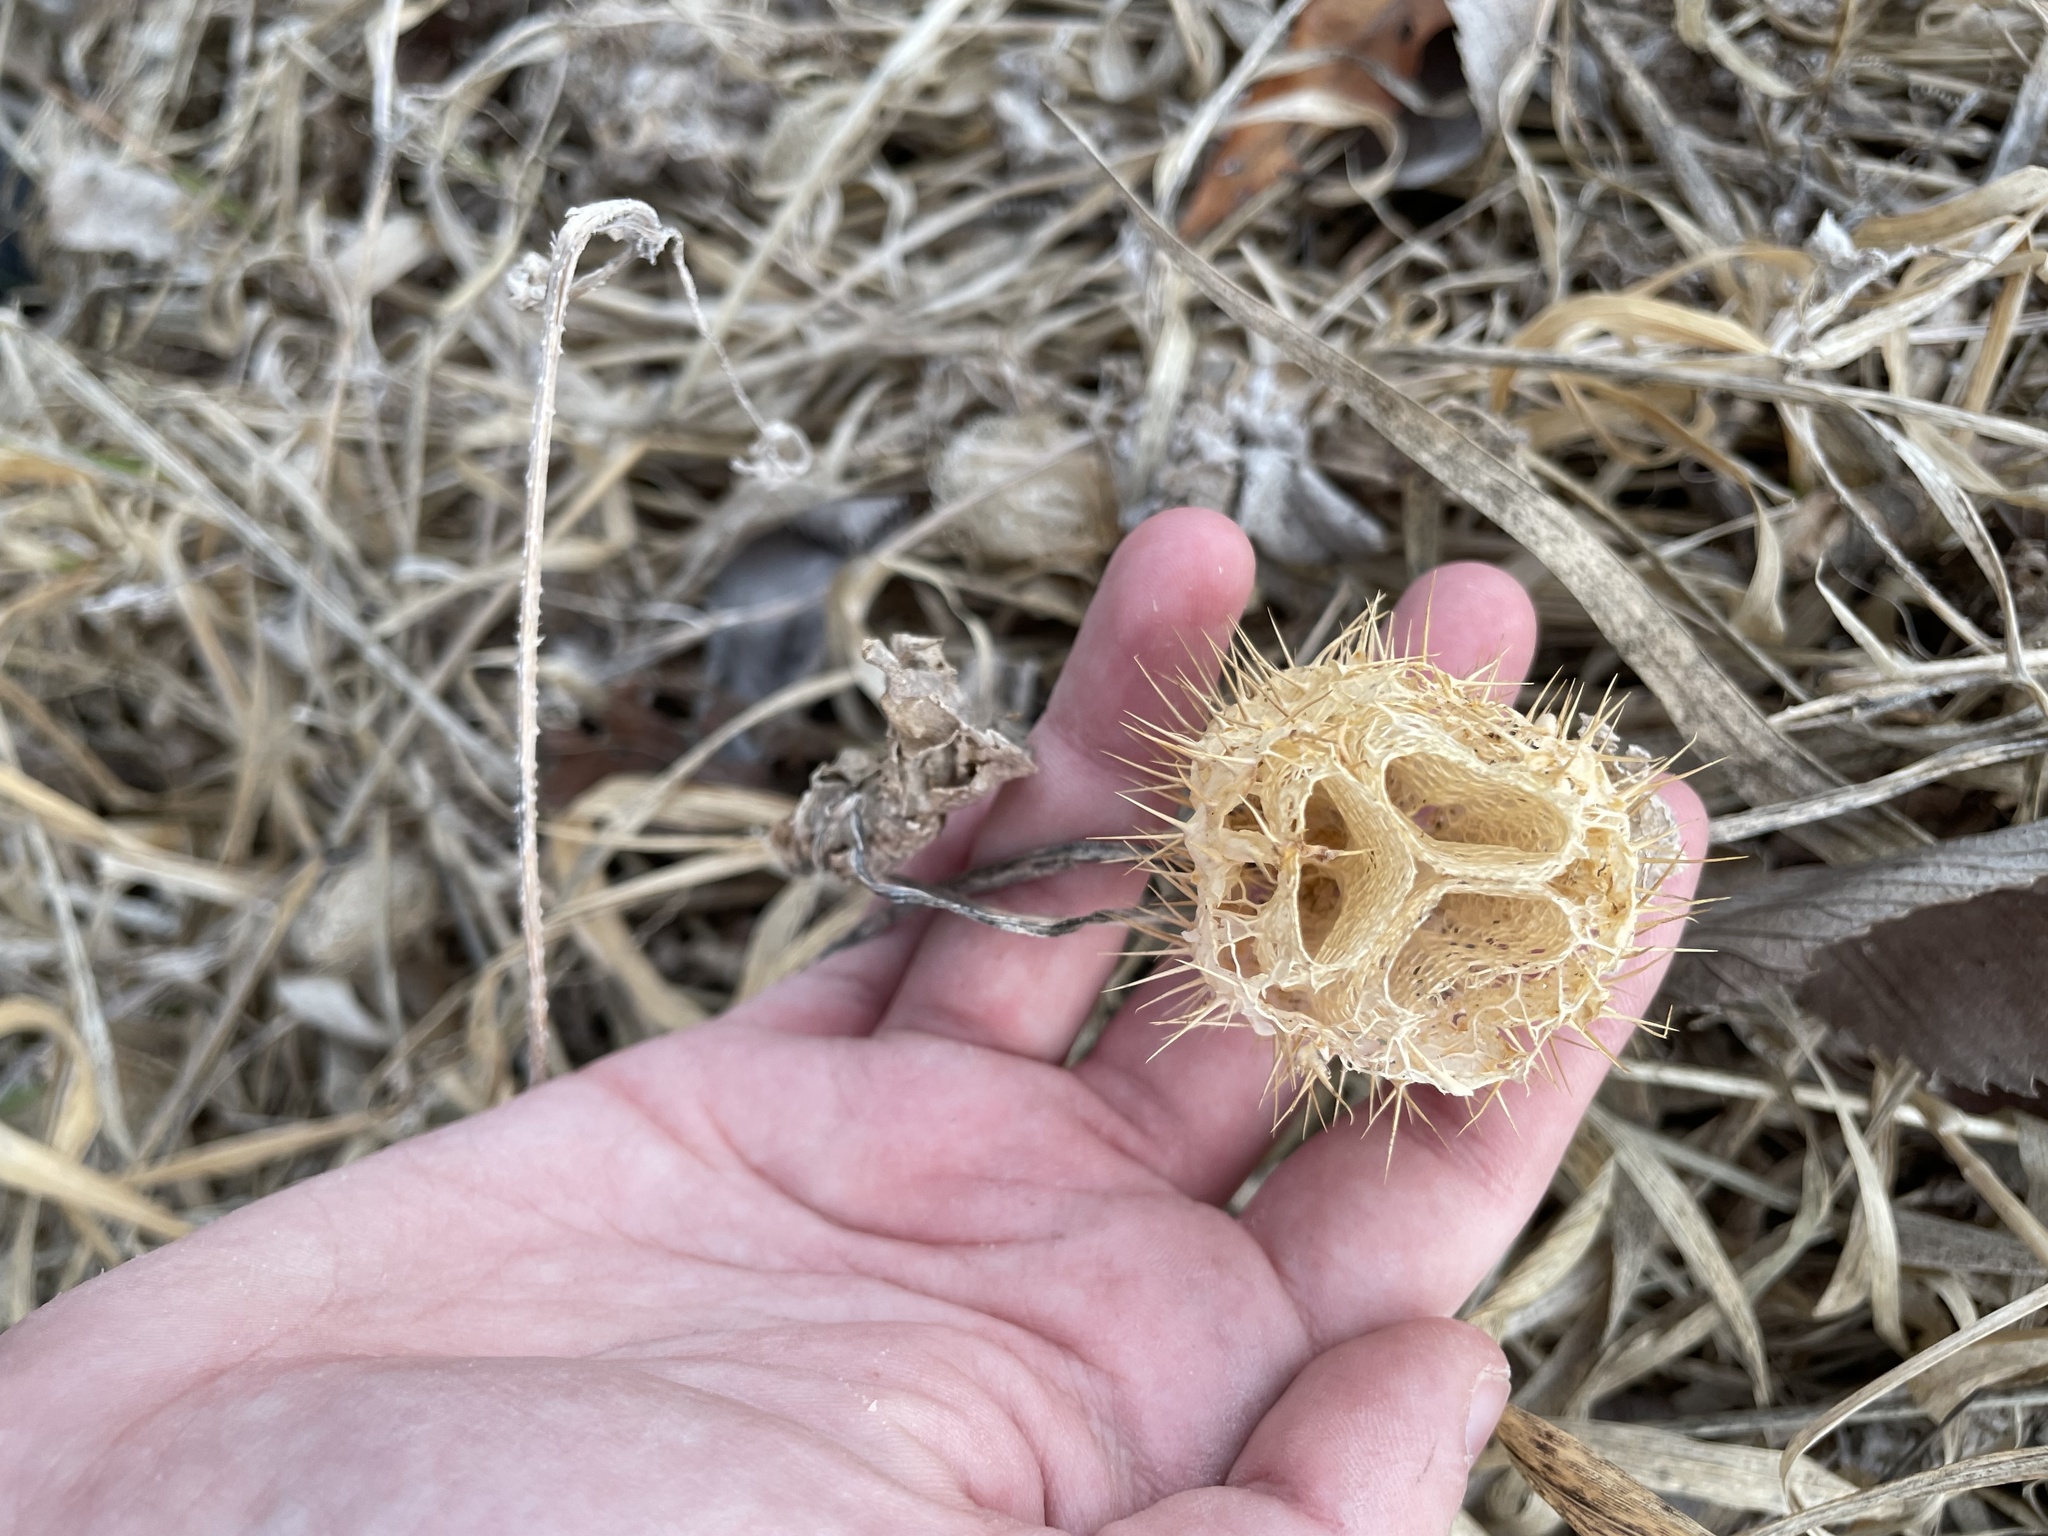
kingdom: Plantae
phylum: Tracheophyta
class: Magnoliopsida
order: Cucurbitales
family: Cucurbitaceae
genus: Echinocystis
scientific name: Echinocystis lobata
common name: Wild cucumber
